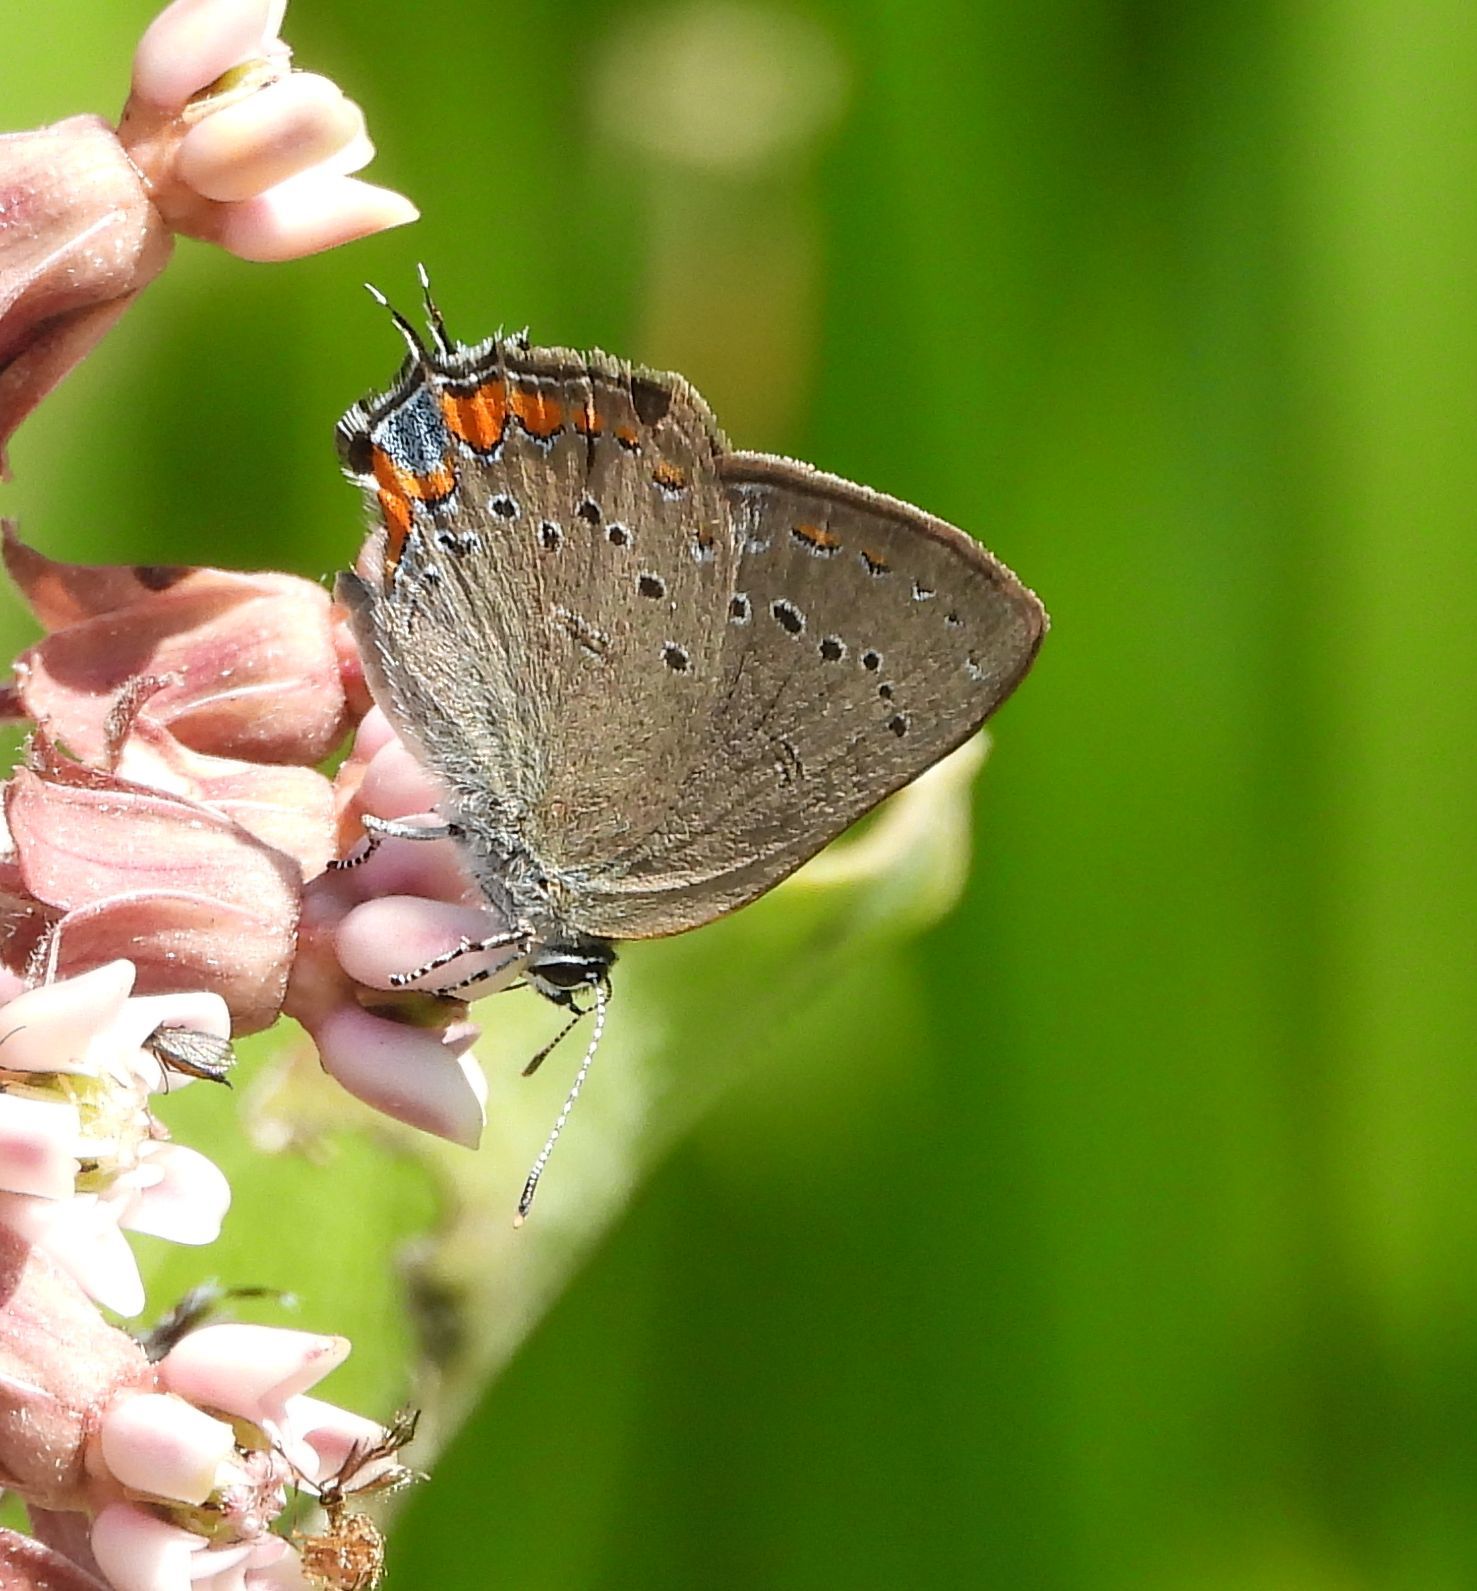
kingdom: Animalia
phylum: Arthropoda
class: Insecta
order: Lepidoptera
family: Lycaenidae
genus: Strymon
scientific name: Strymon acadica
